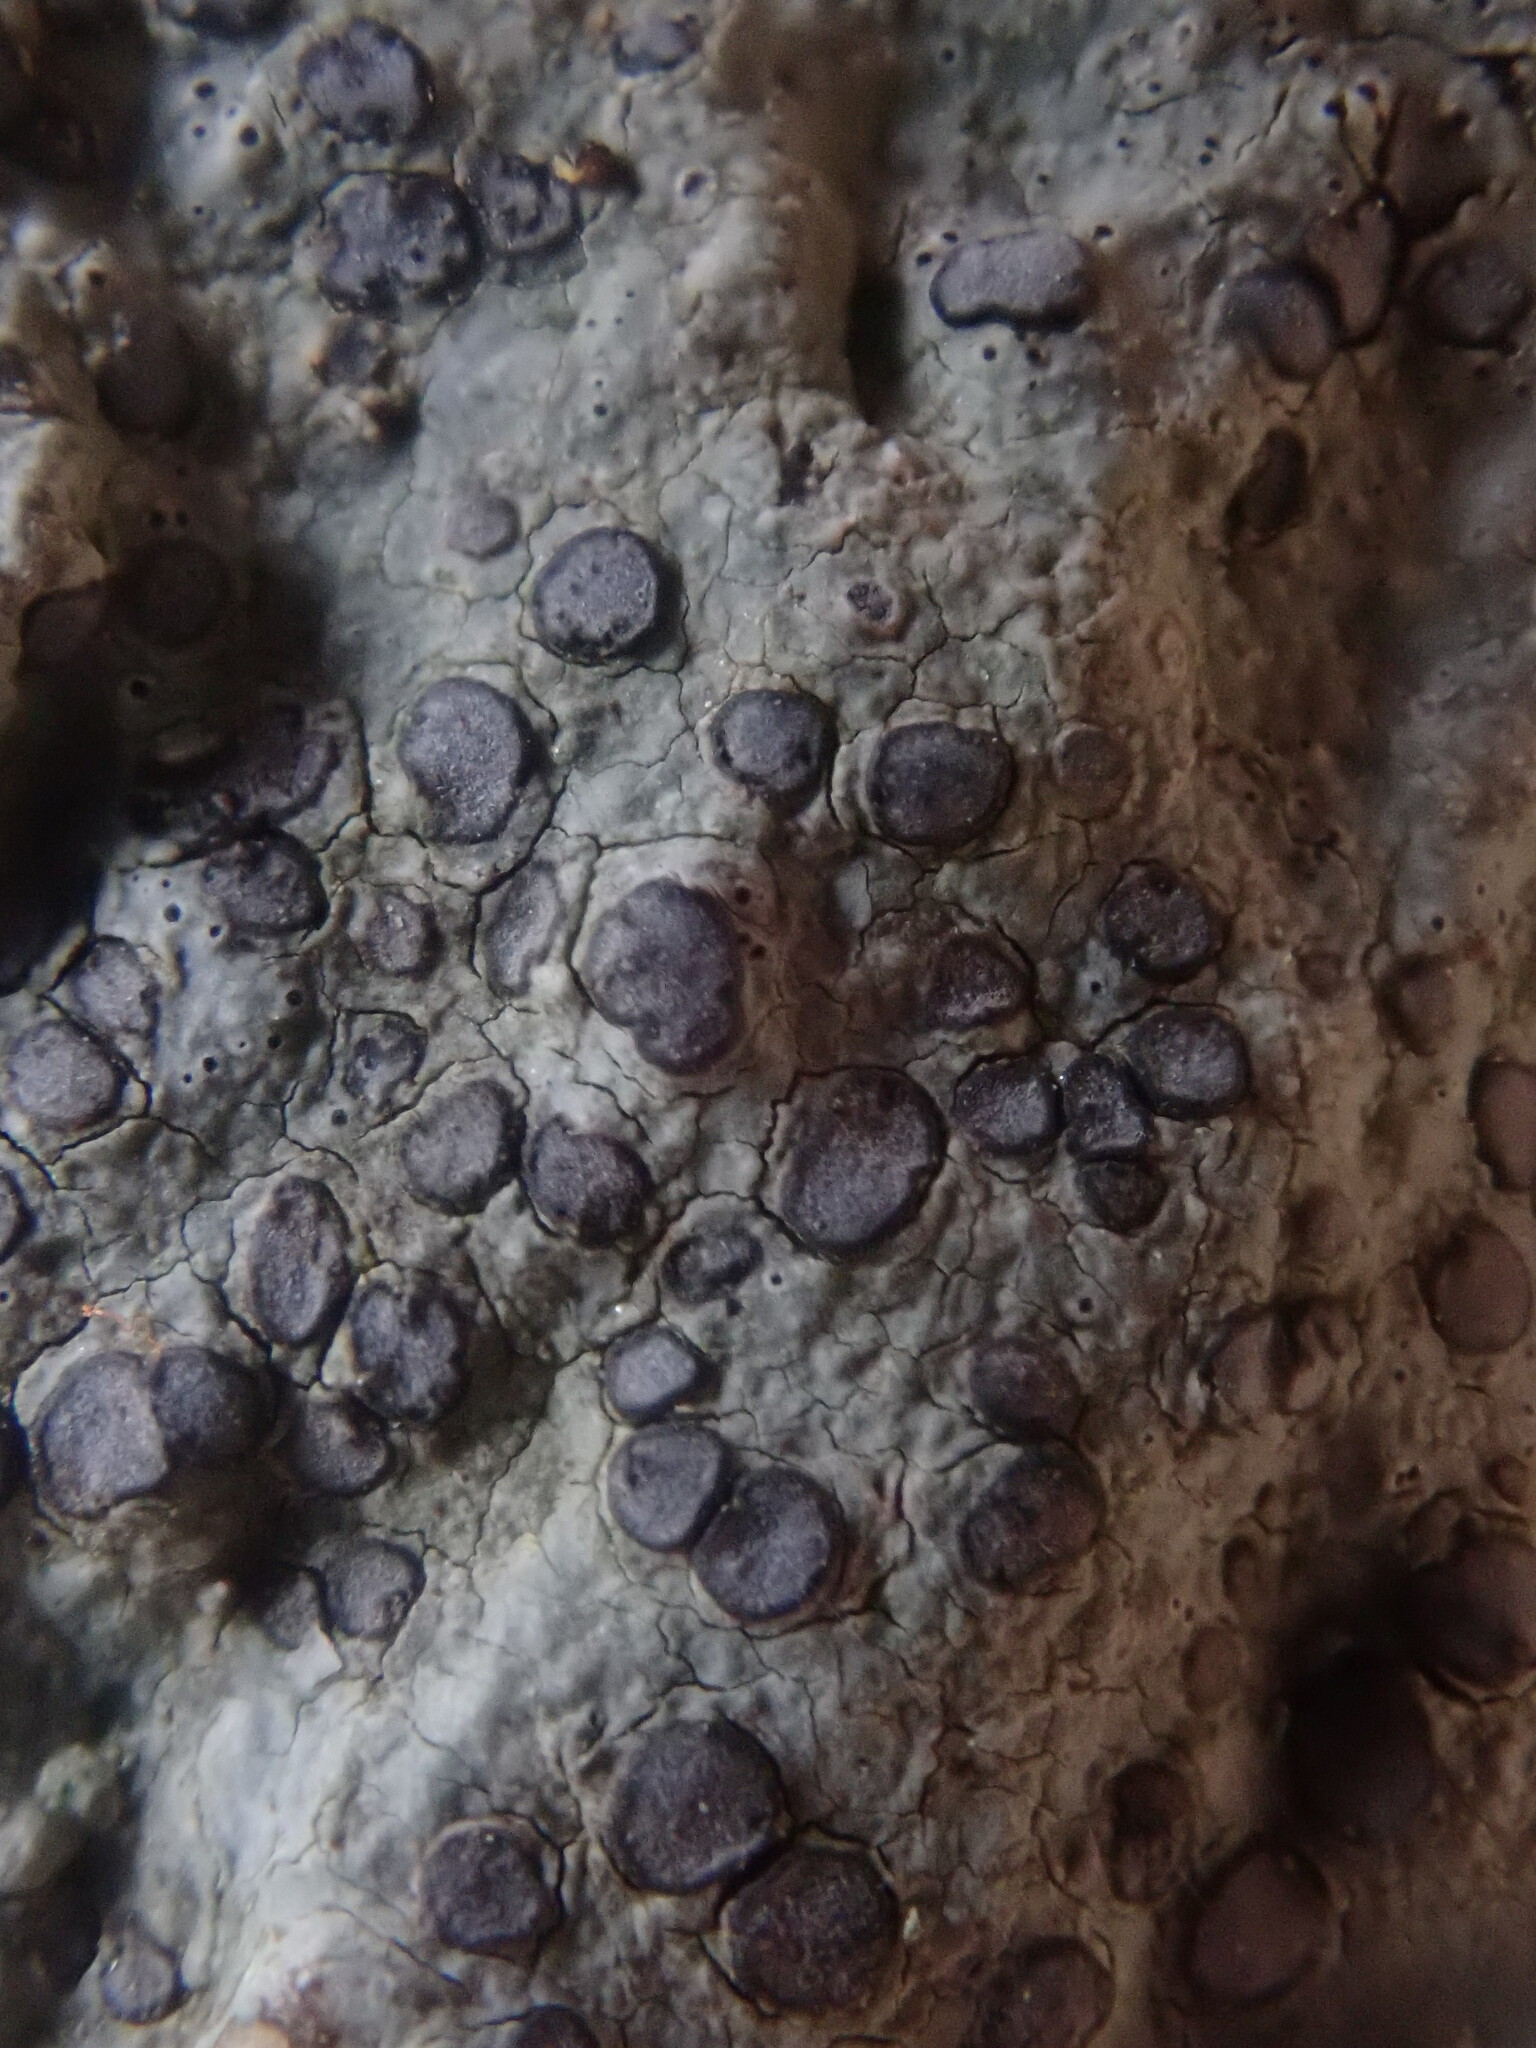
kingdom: Fungi
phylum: Ascomycota
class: Lecanoromycetes
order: Lecideales
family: Lecideaceae
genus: Porpidia
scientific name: Porpidia albocaerulescens
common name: Smokey-eyed boulder lichen
